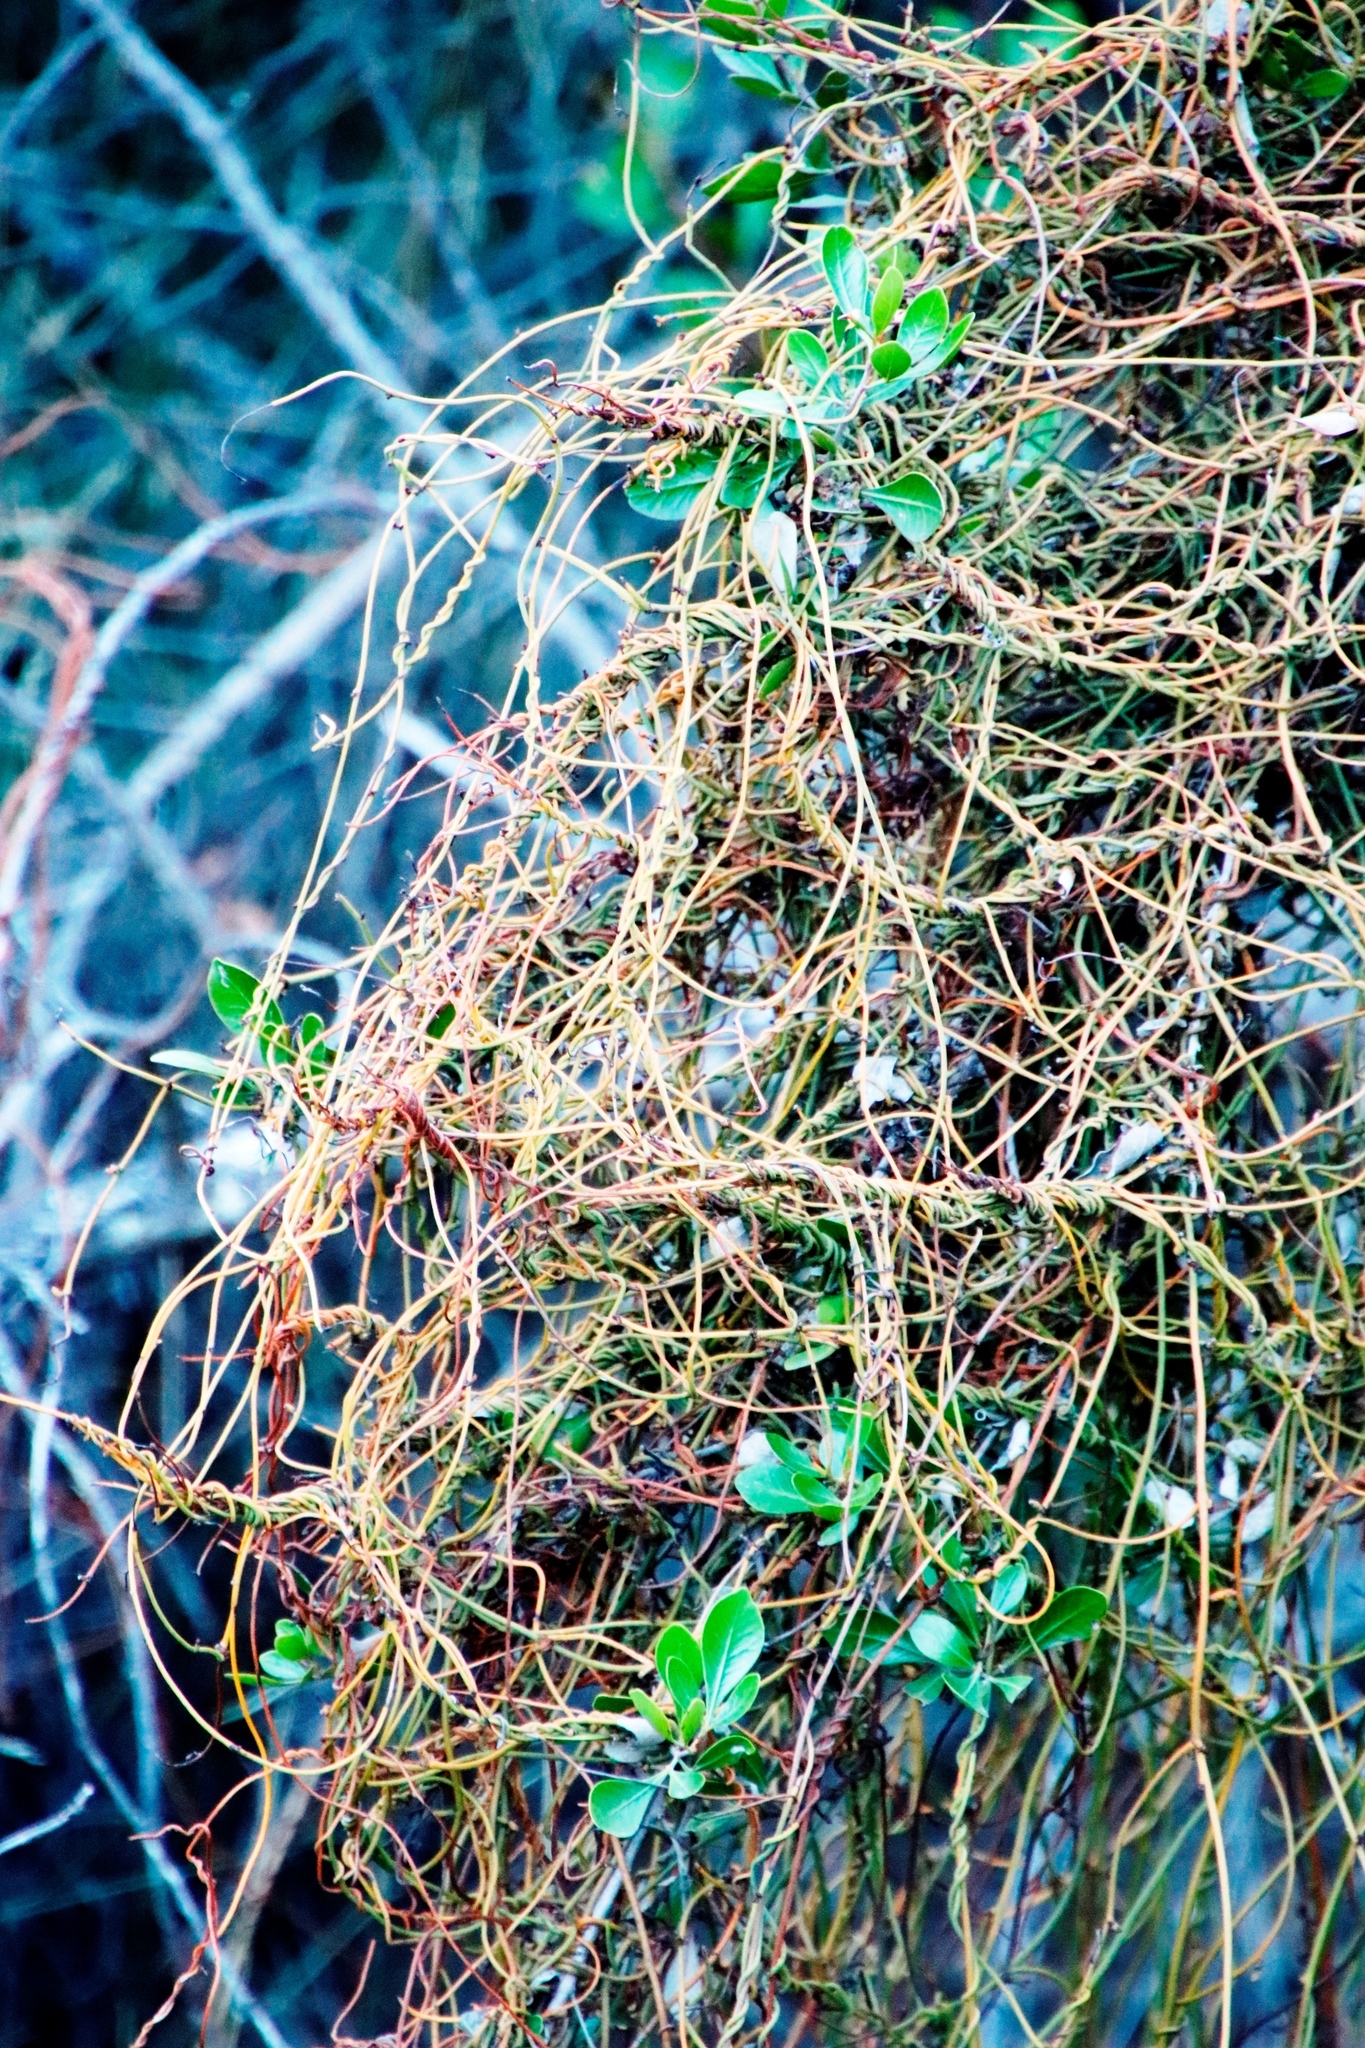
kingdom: Plantae
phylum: Tracheophyta
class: Magnoliopsida
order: Laurales
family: Lauraceae
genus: Cassytha
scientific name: Cassytha ciliolata
